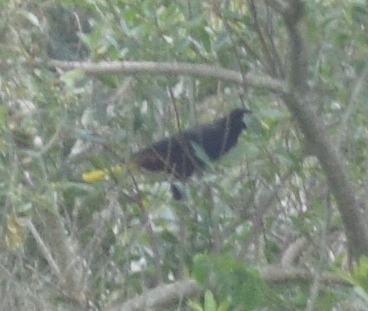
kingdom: Animalia
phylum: Chordata
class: Aves
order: Passeriformes
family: Icteridae
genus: Psarocolius
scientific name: Psarocolius decumanus
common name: Crested oropendola
